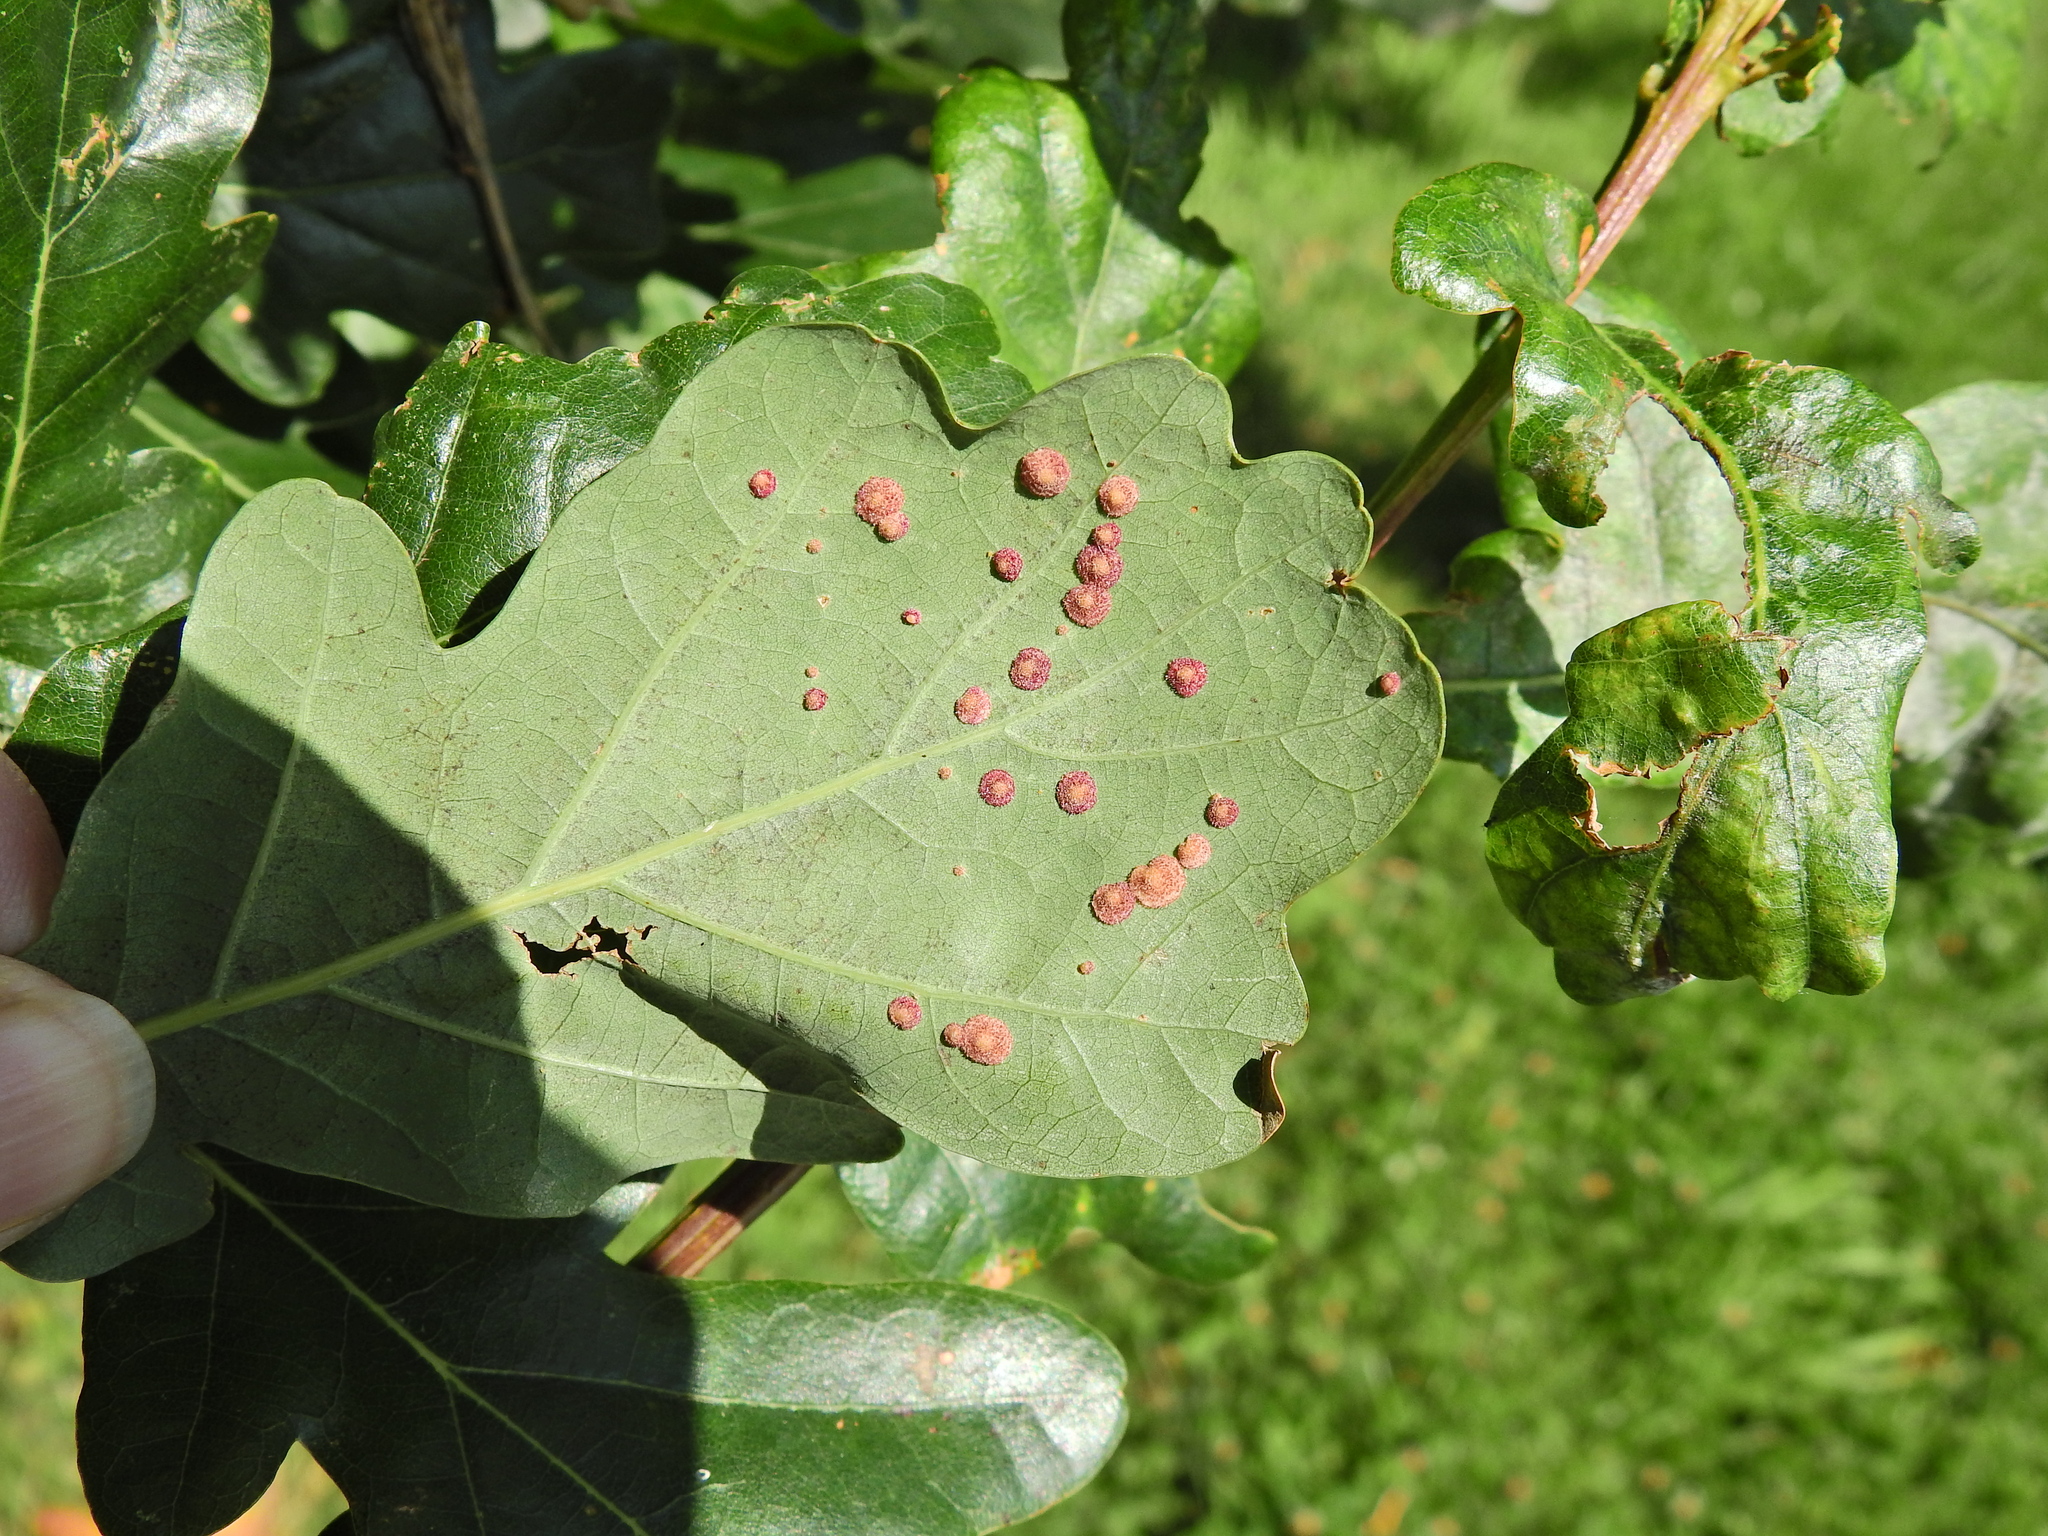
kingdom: Animalia
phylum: Arthropoda
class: Insecta
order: Hymenoptera
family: Cynipidae
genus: Neuroterus
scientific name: Neuroterus quercusbaccarum
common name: Common spangle gall
